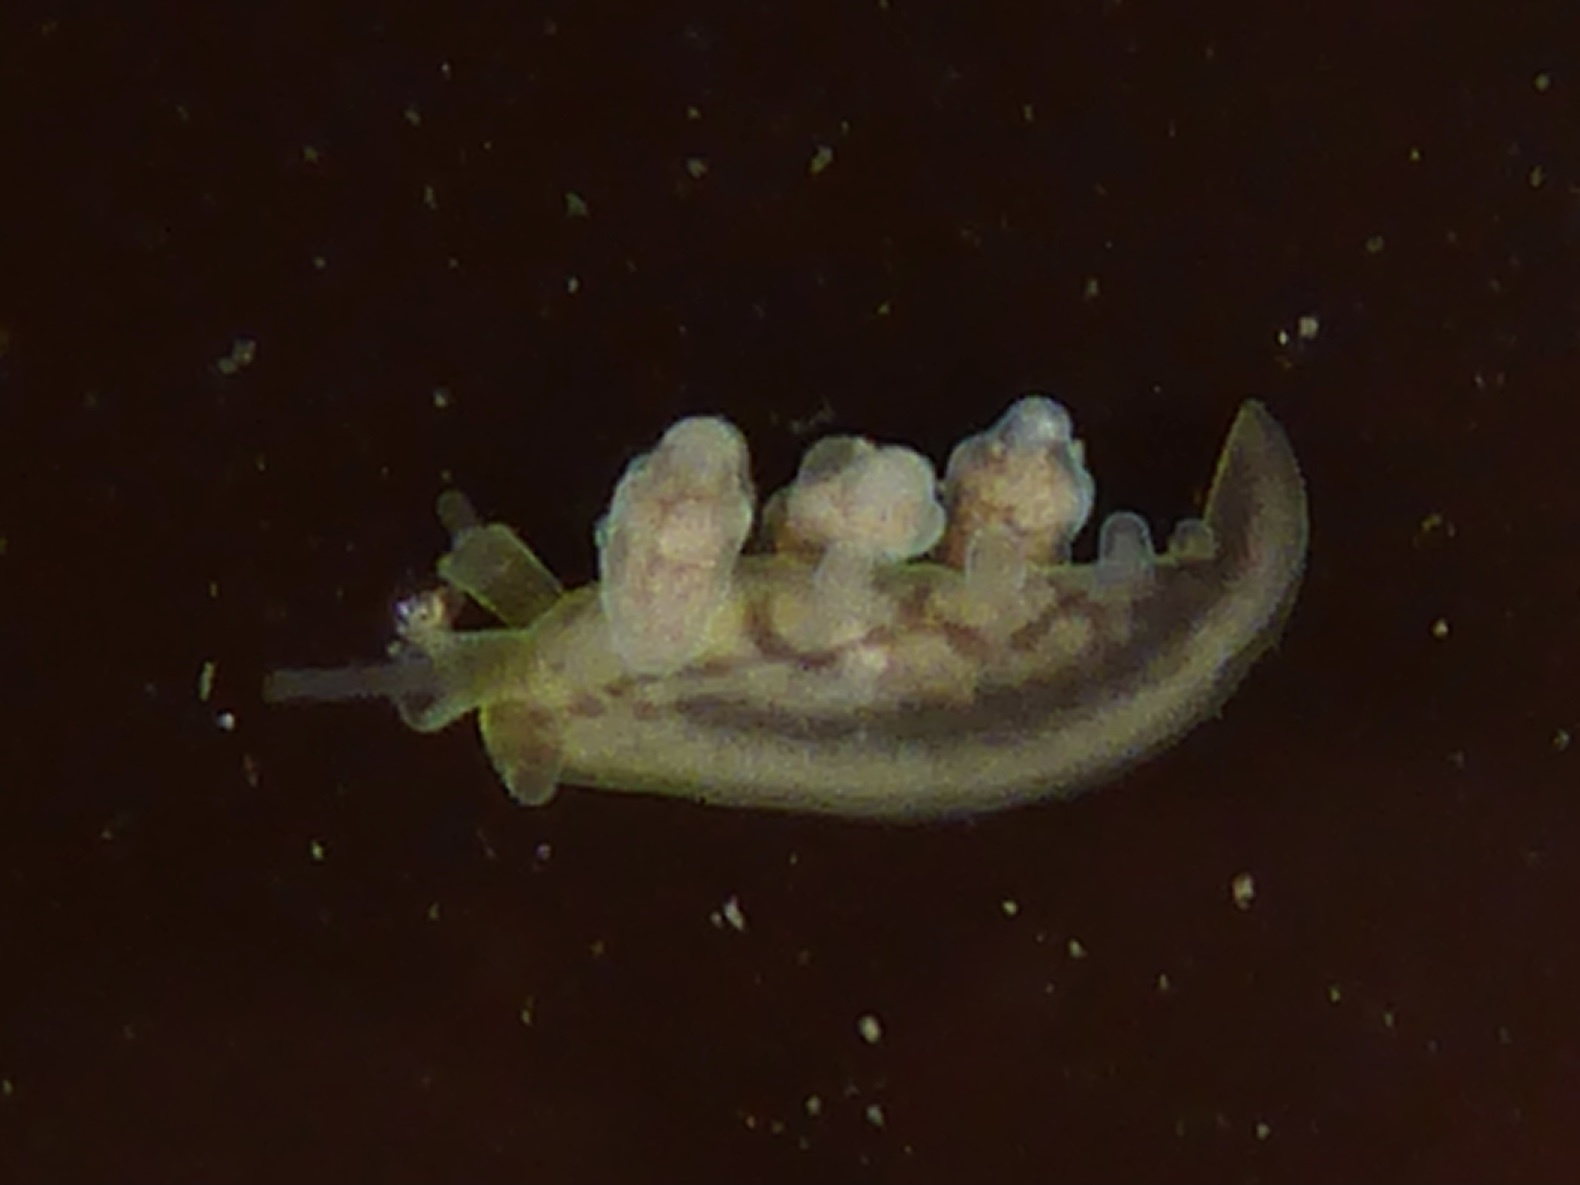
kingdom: Animalia
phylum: Mollusca
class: Gastropoda
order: Nudibranchia
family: Dotidae
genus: Doto
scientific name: Doto columbiana
